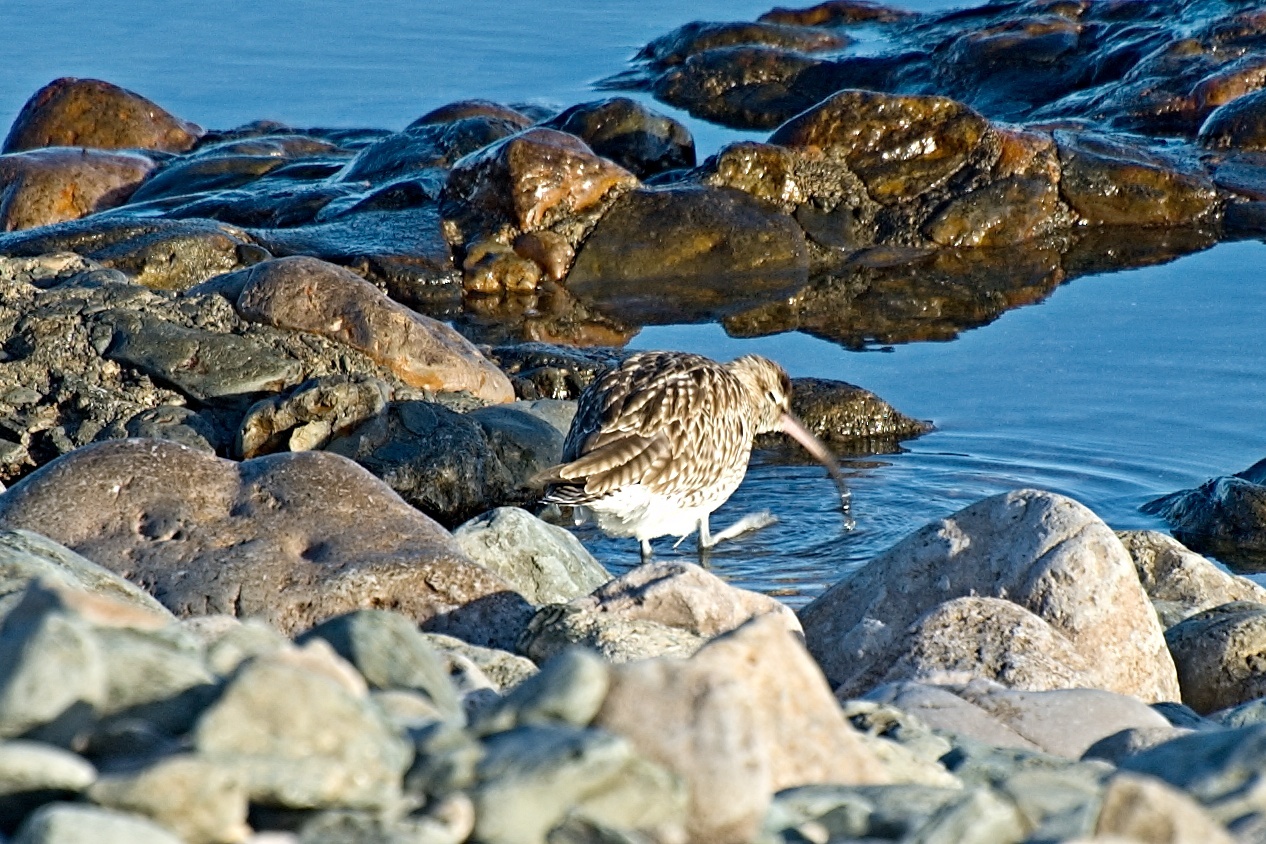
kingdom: Animalia
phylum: Chordata
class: Aves
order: Charadriiformes
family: Scolopacidae
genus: Numenius
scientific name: Numenius phaeopus
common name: Whimbrel
